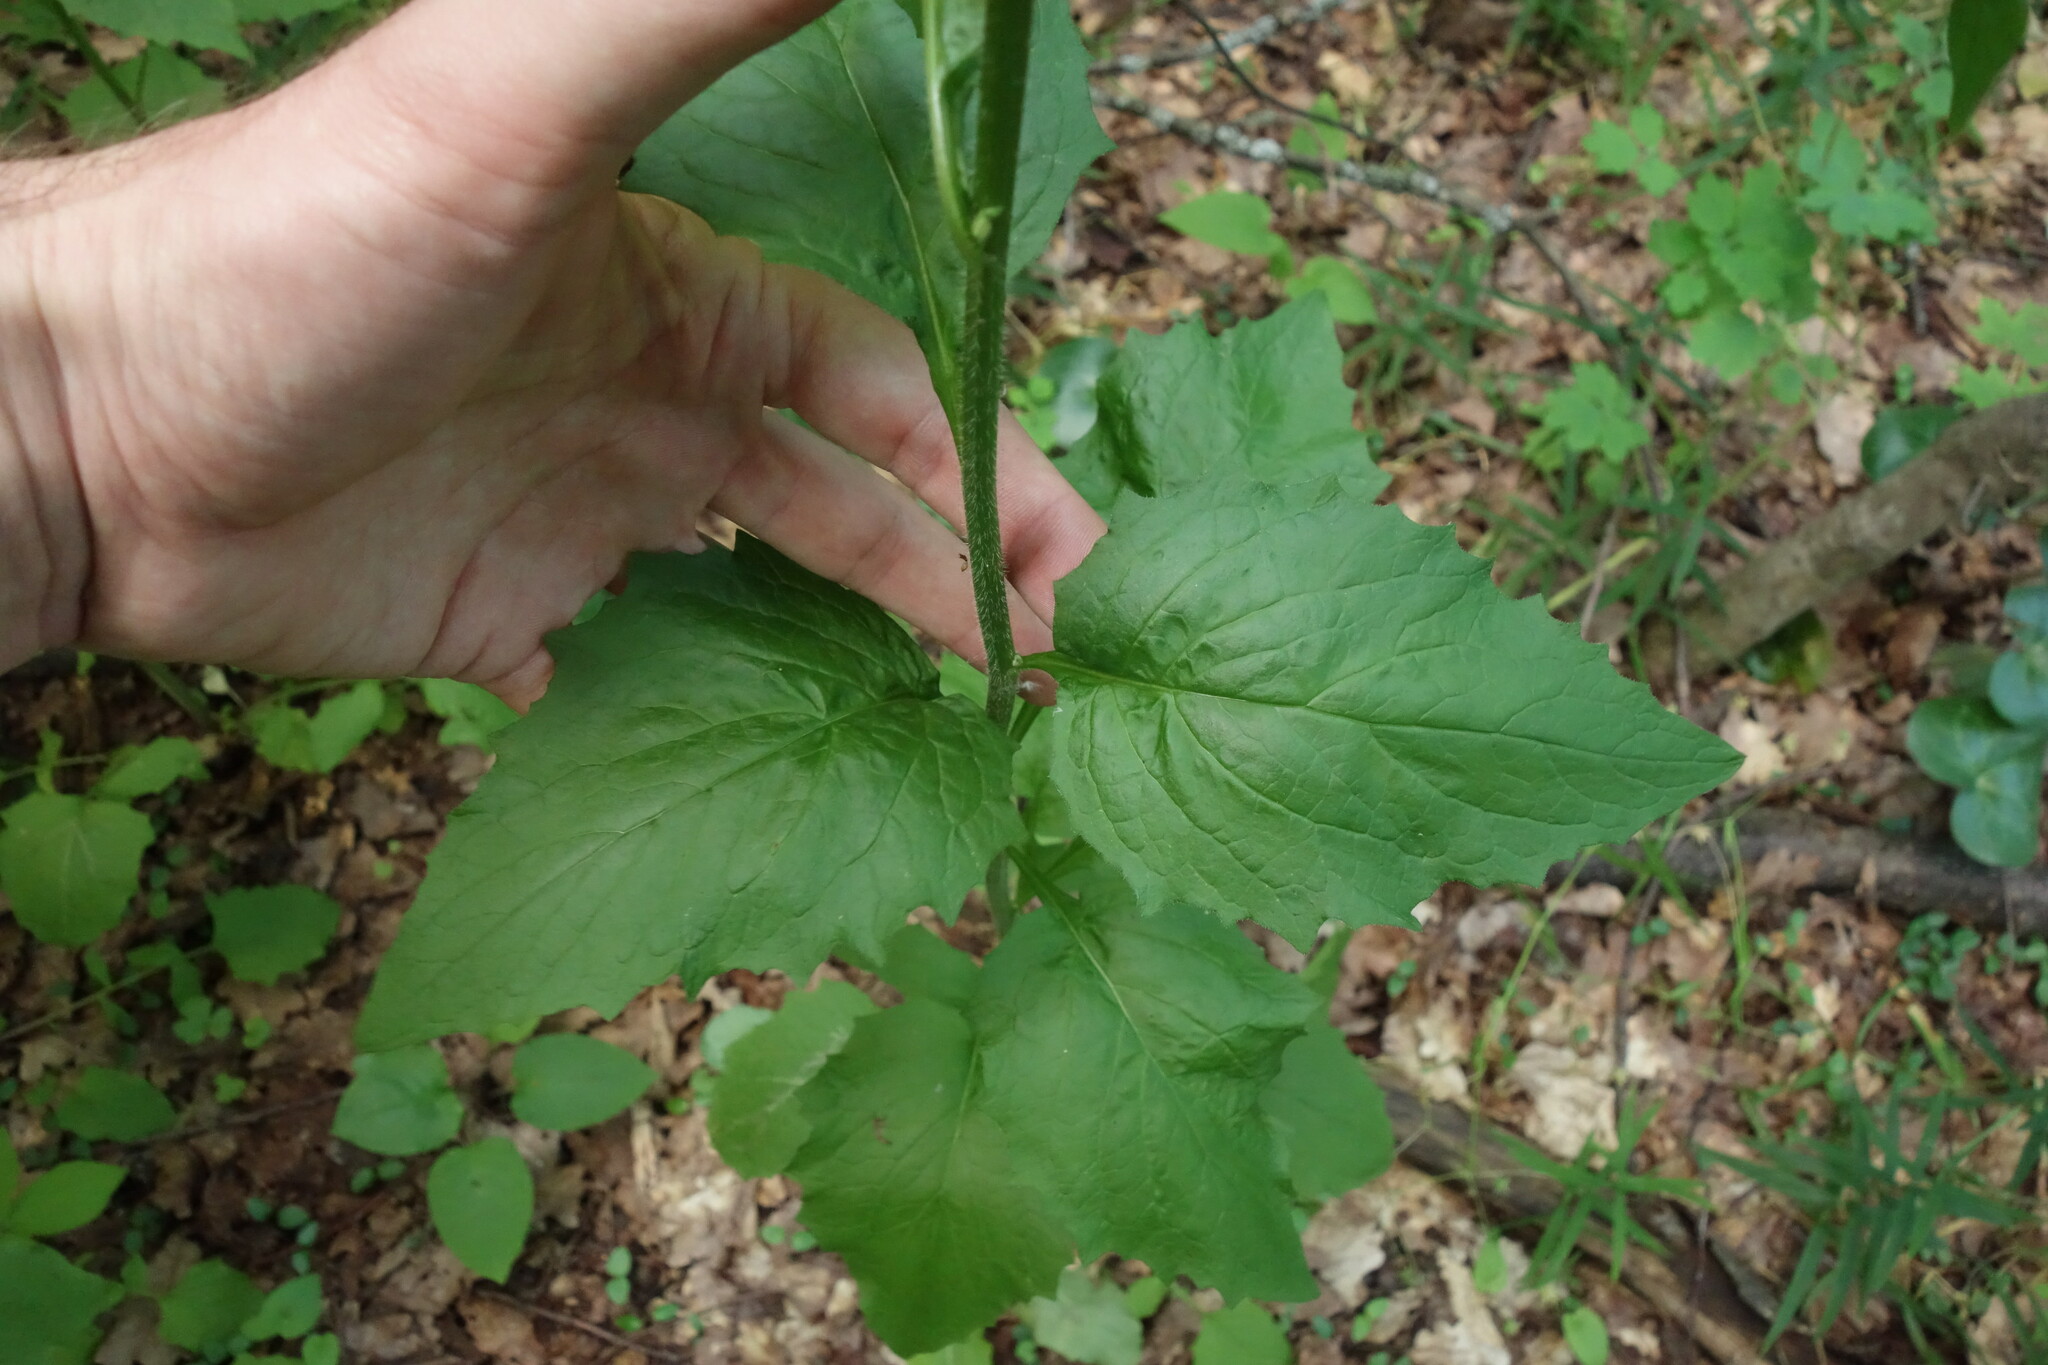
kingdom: Plantae
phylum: Tracheophyta
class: Magnoliopsida
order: Asterales
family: Asteraceae
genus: Lapsana
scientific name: Lapsana communis
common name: Nipplewort
